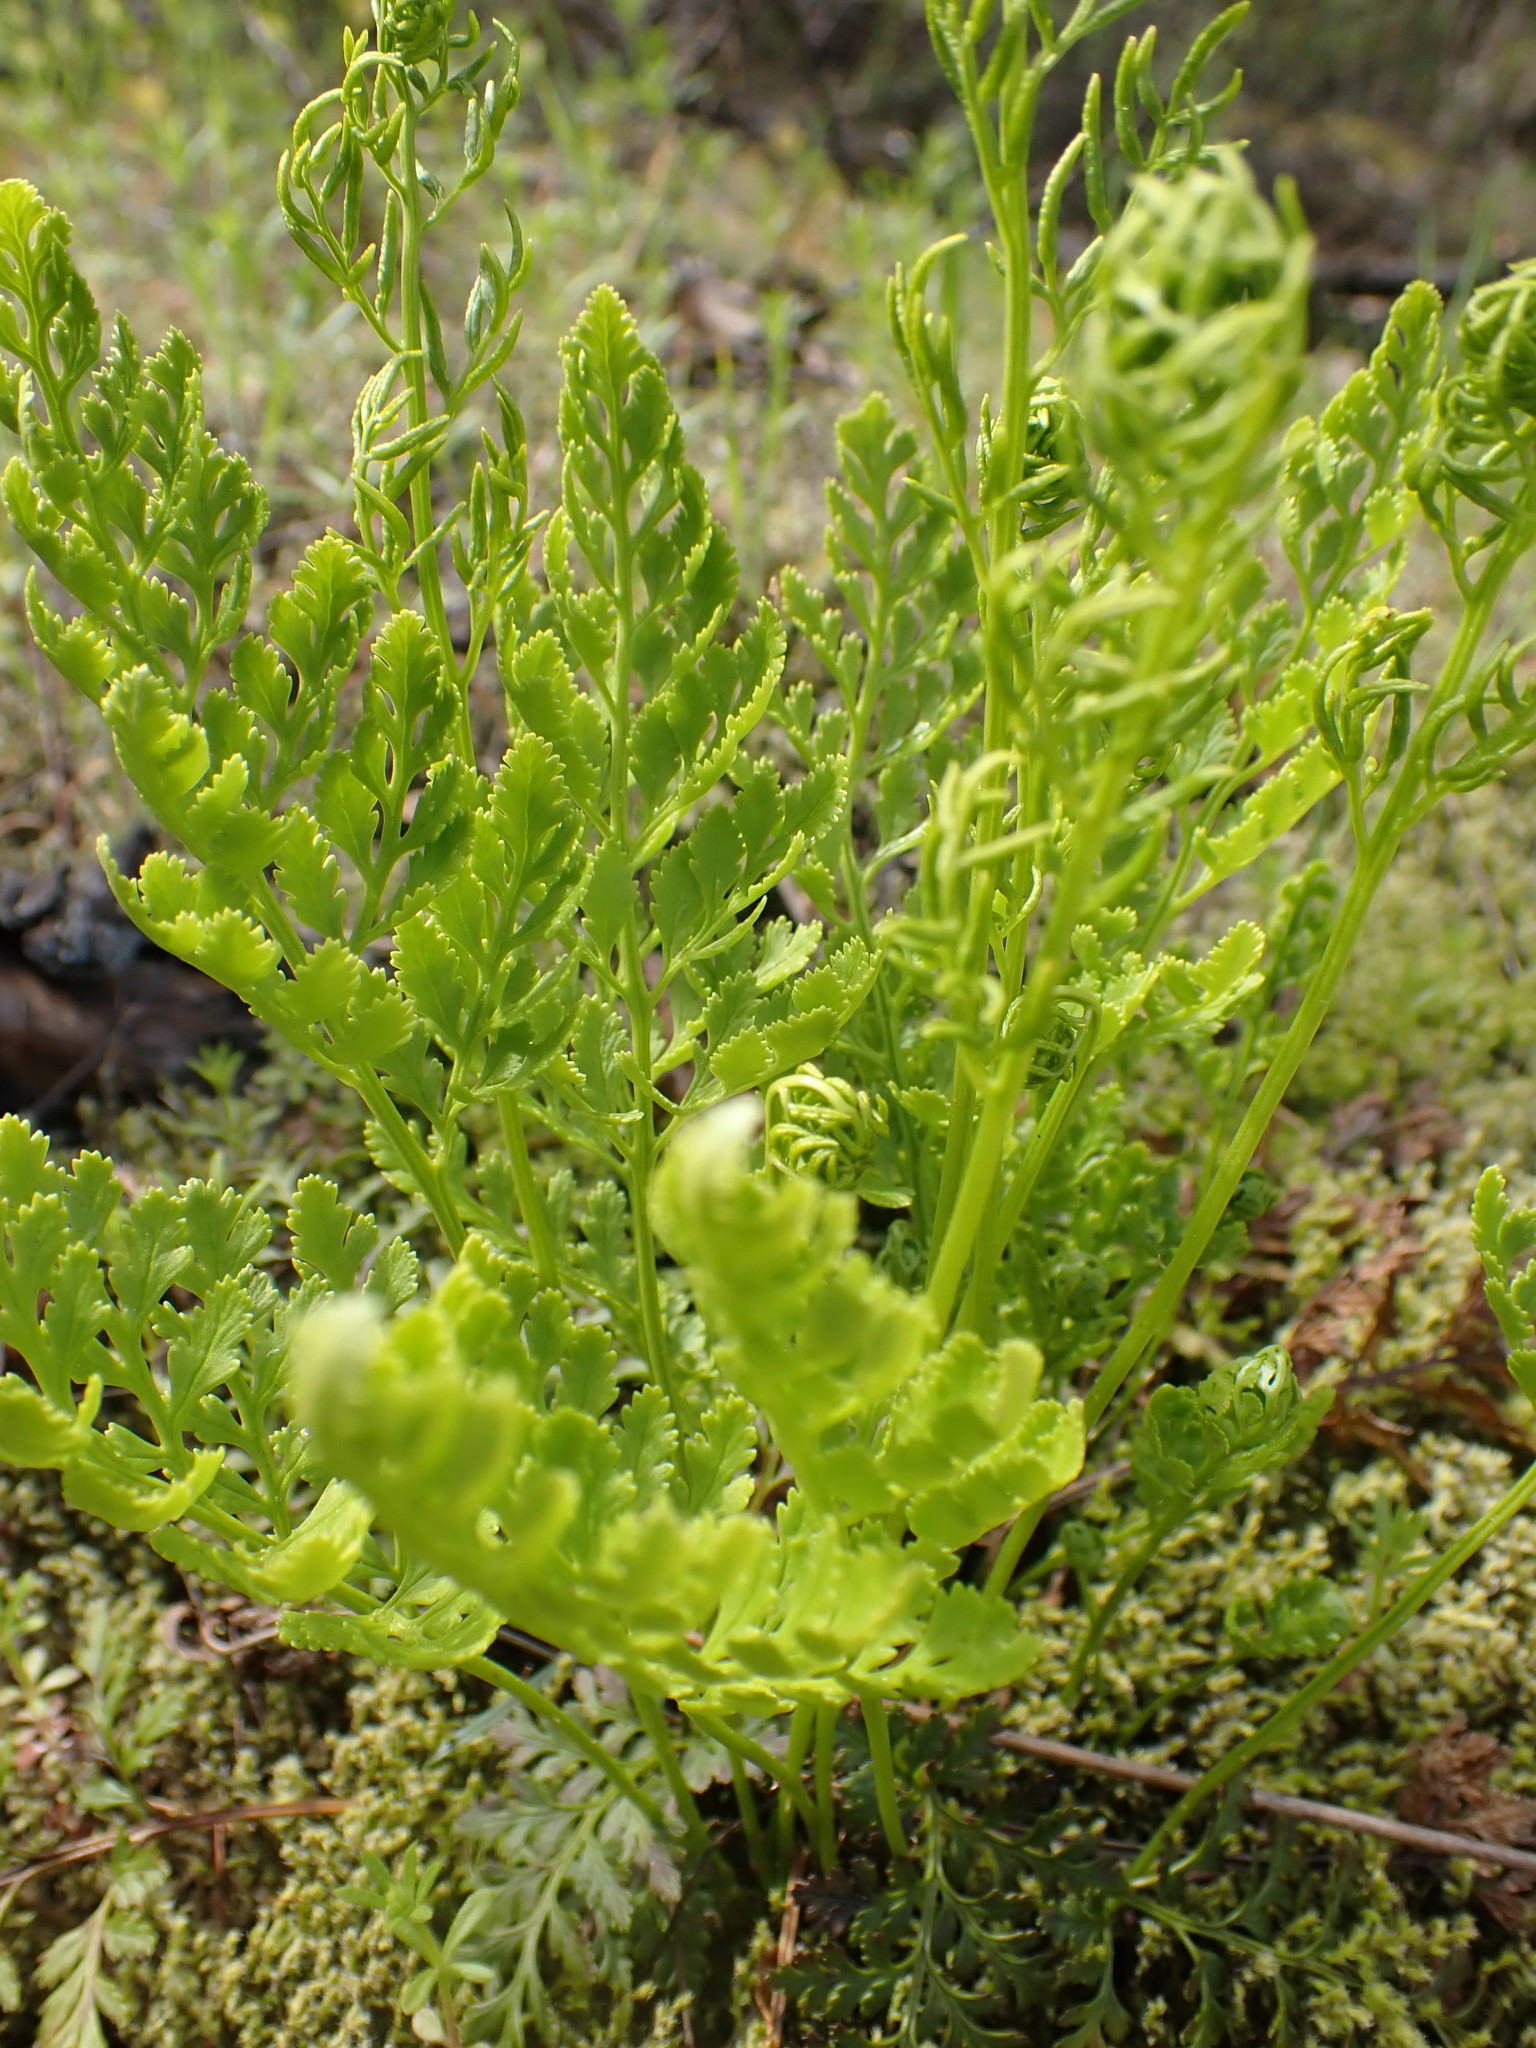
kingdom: Plantae
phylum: Tracheophyta
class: Polypodiopsida
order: Polypodiales
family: Pteridaceae
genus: Cryptogramma
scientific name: Cryptogramma acrostichoides
